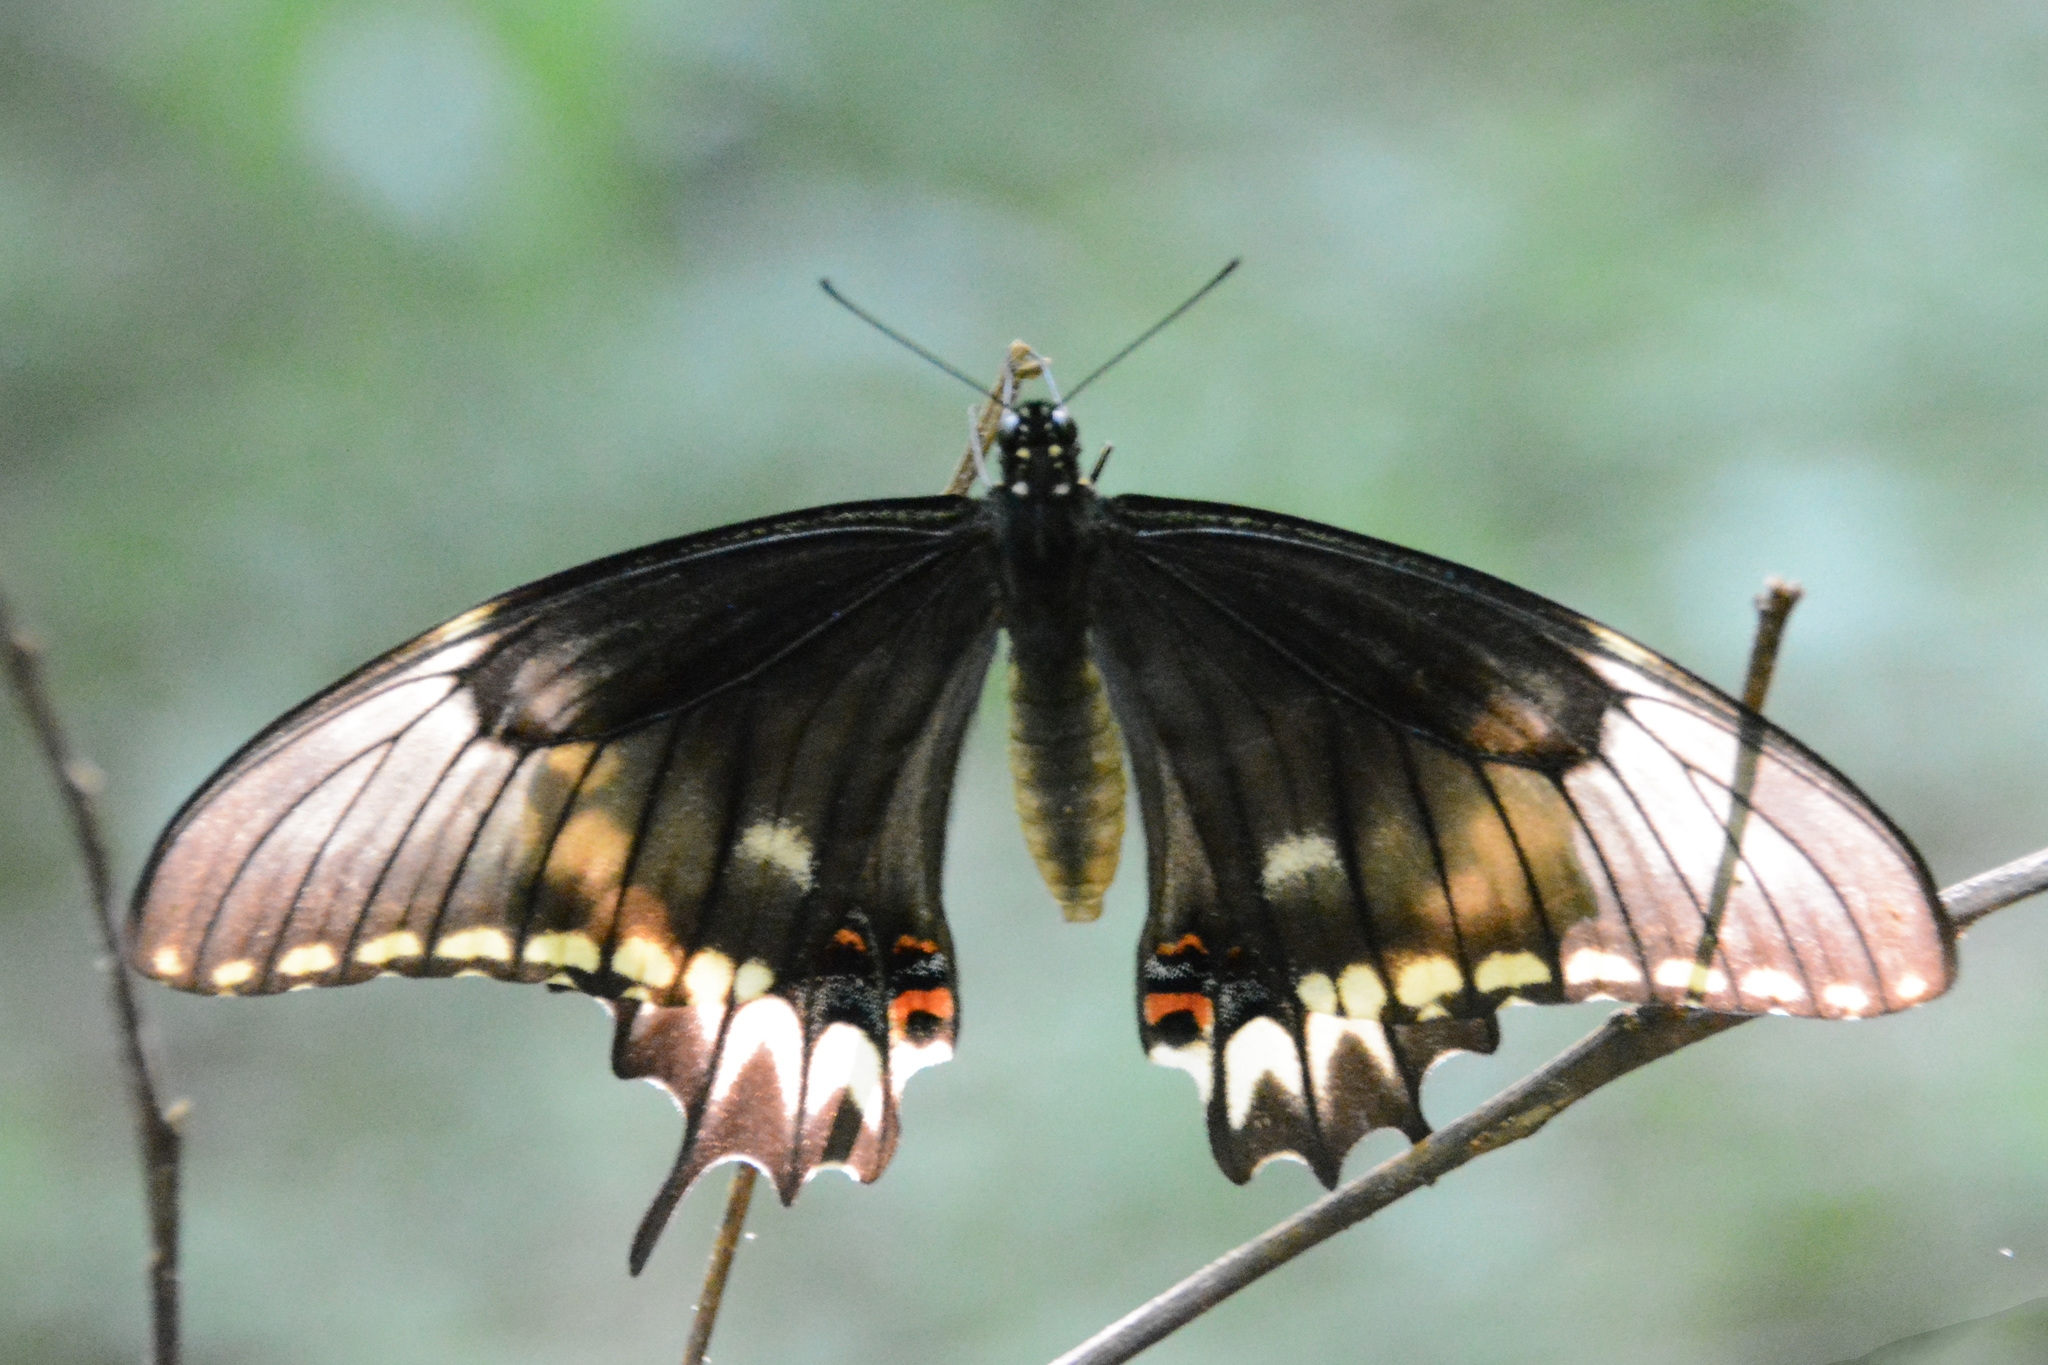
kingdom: Animalia
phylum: Arthropoda
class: Insecta
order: Lepidoptera
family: Papilionidae
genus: Papilio
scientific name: Papilio astyalus
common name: Astyalus swallowtail
